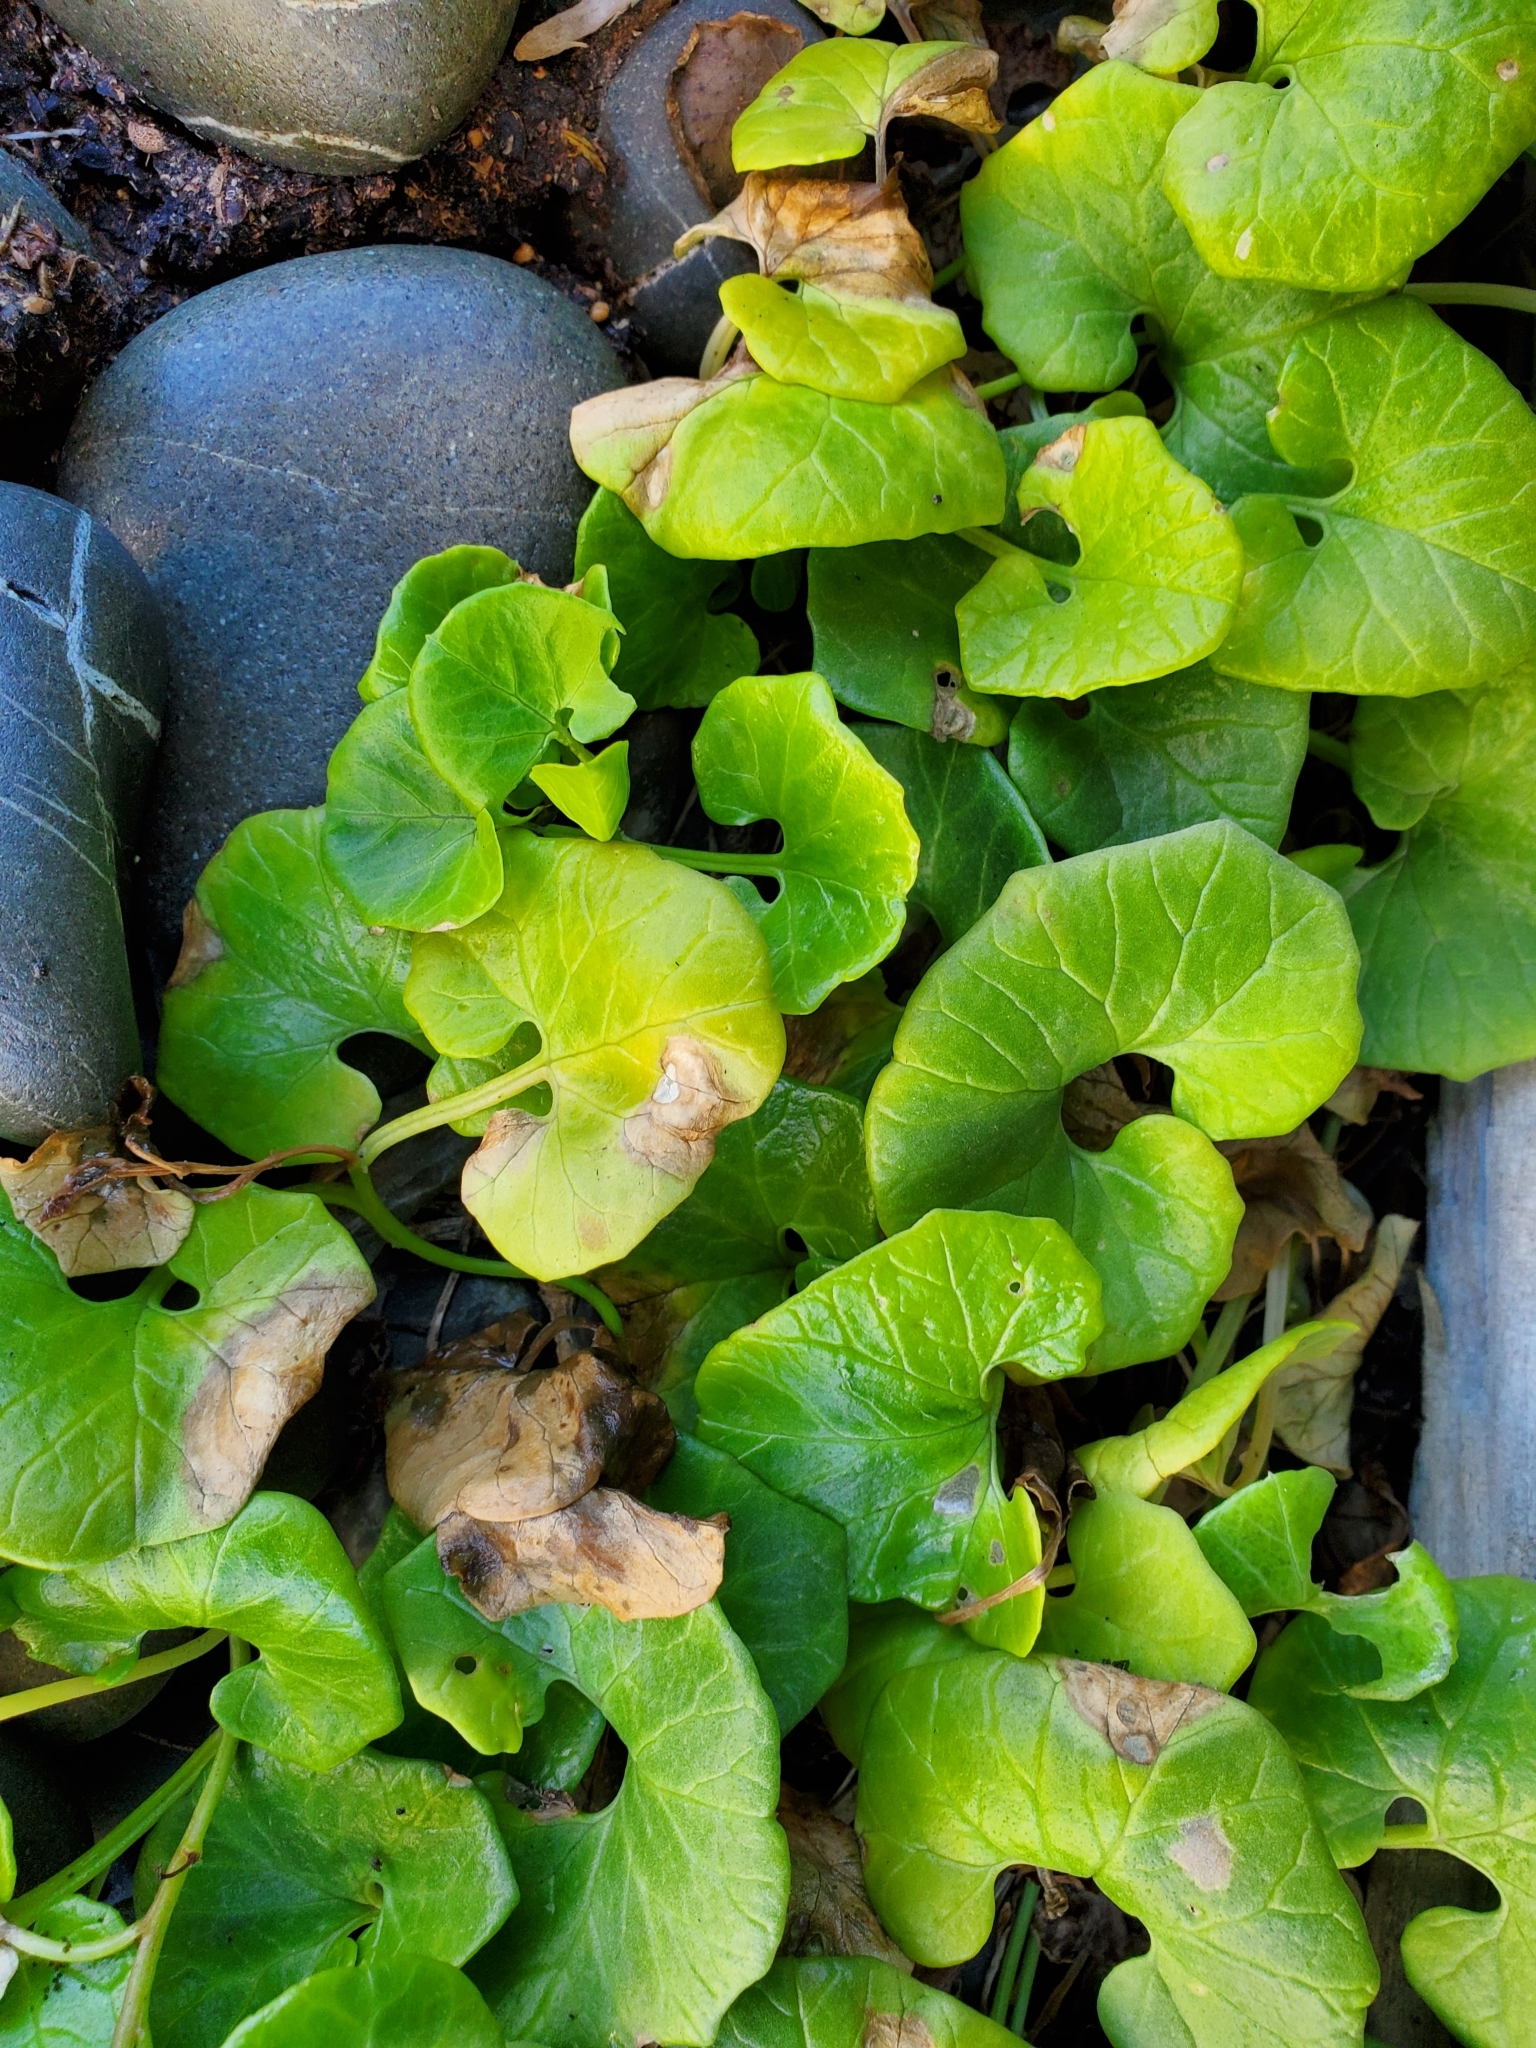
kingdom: Plantae
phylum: Tracheophyta
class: Magnoliopsida
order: Solanales
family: Convolvulaceae
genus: Calystegia
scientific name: Calystegia soldanella
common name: Sea bindweed
